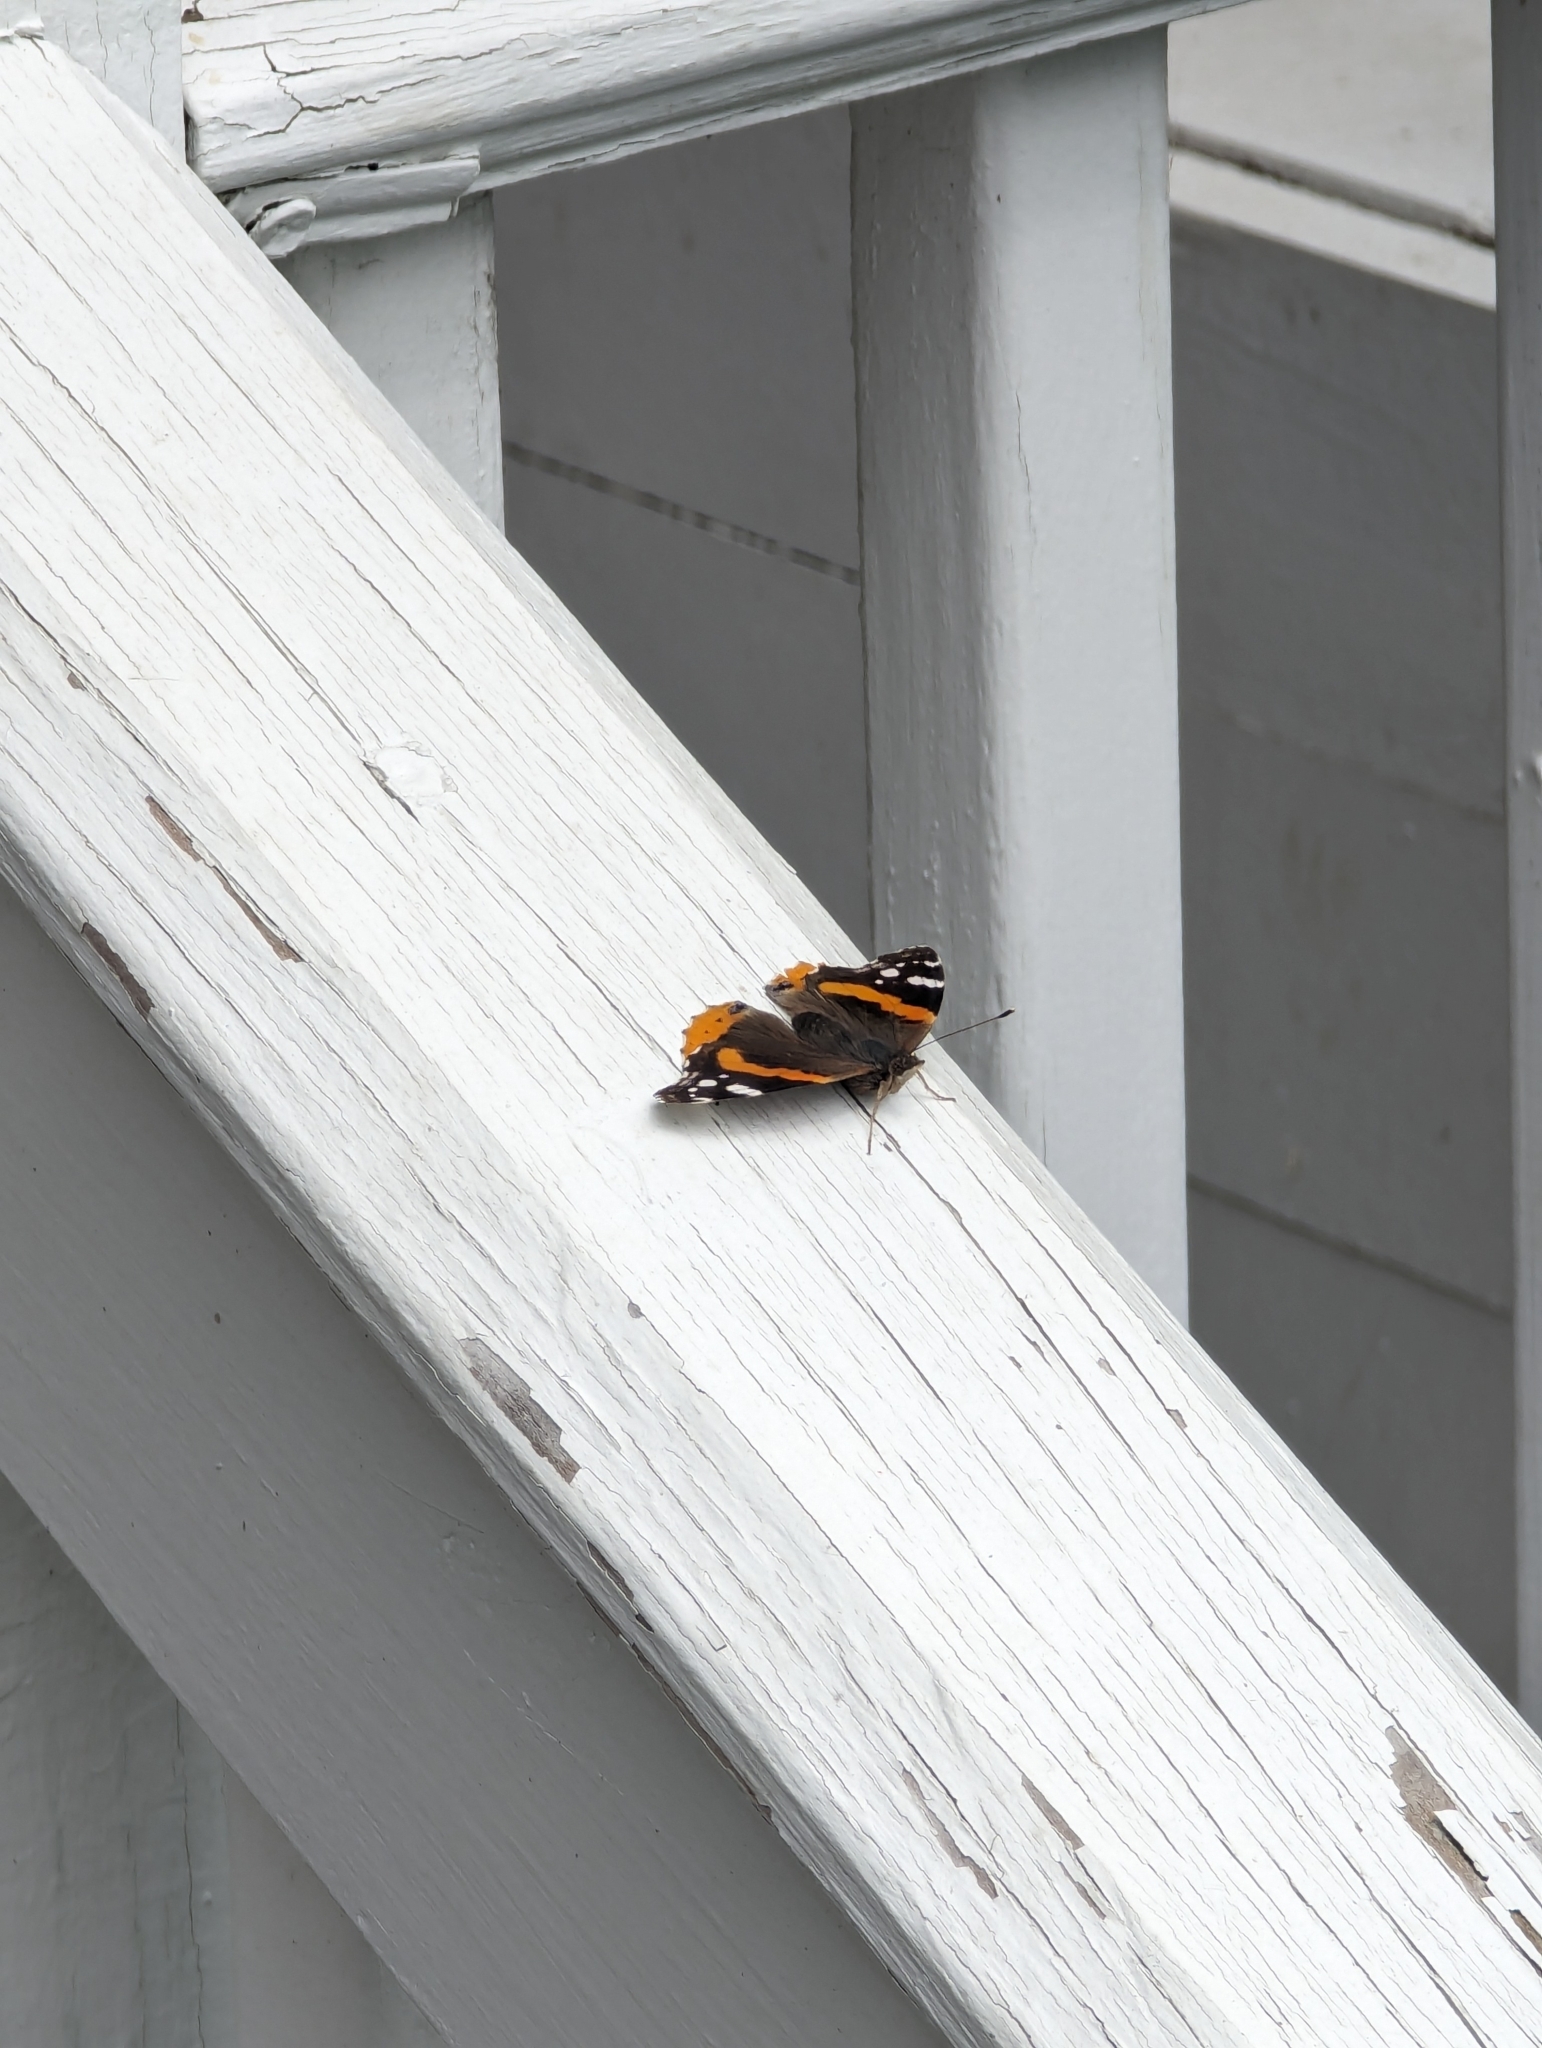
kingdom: Animalia
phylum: Arthropoda
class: Insecta
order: Lepidoptera
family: Nymphalidae
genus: Vanessa
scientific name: Vanessa atalanta
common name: Red admiral
